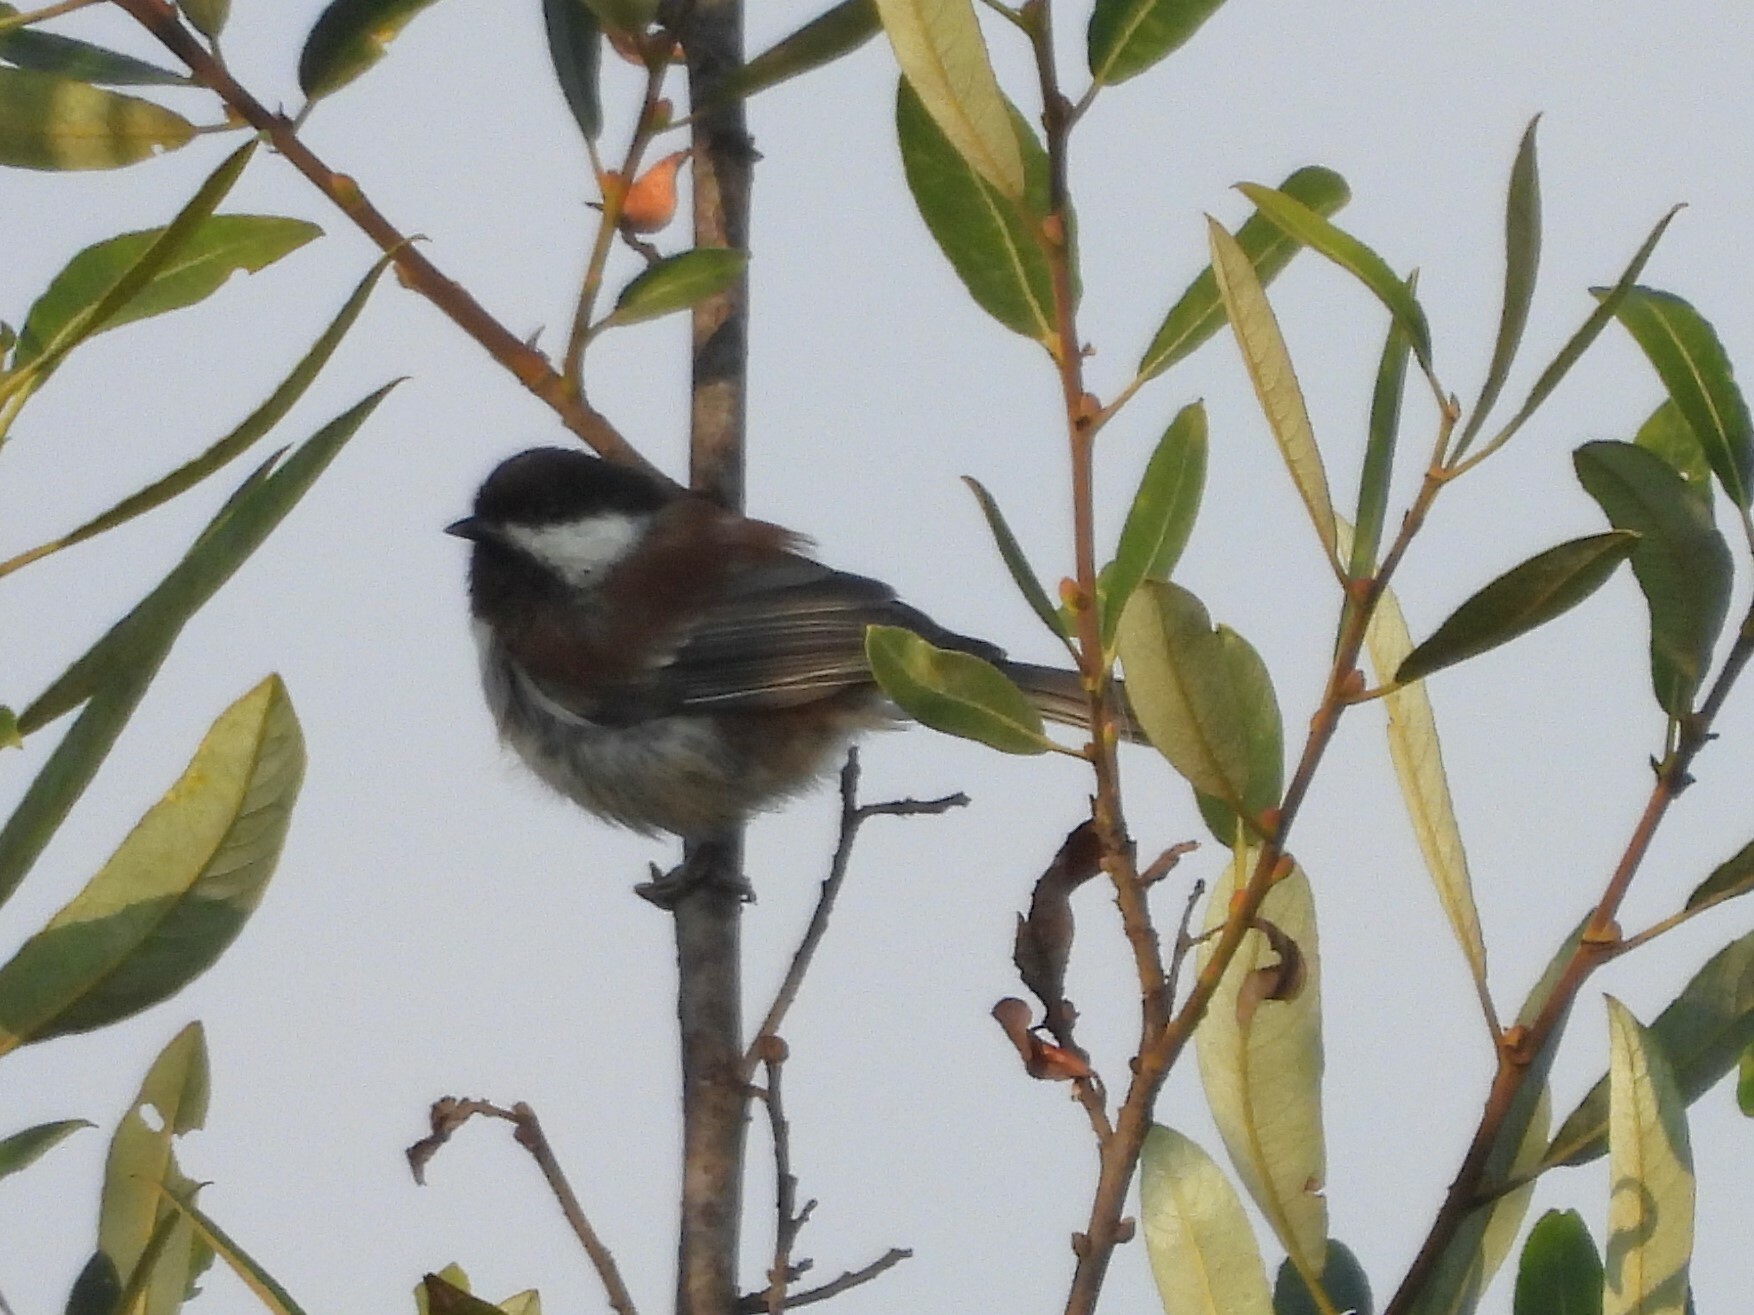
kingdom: Animalia
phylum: Chordata
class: Aves
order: Passeriformes
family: Paridae
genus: Poecile
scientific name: Poecile rufescens
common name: Chestnut-backed chickadee
